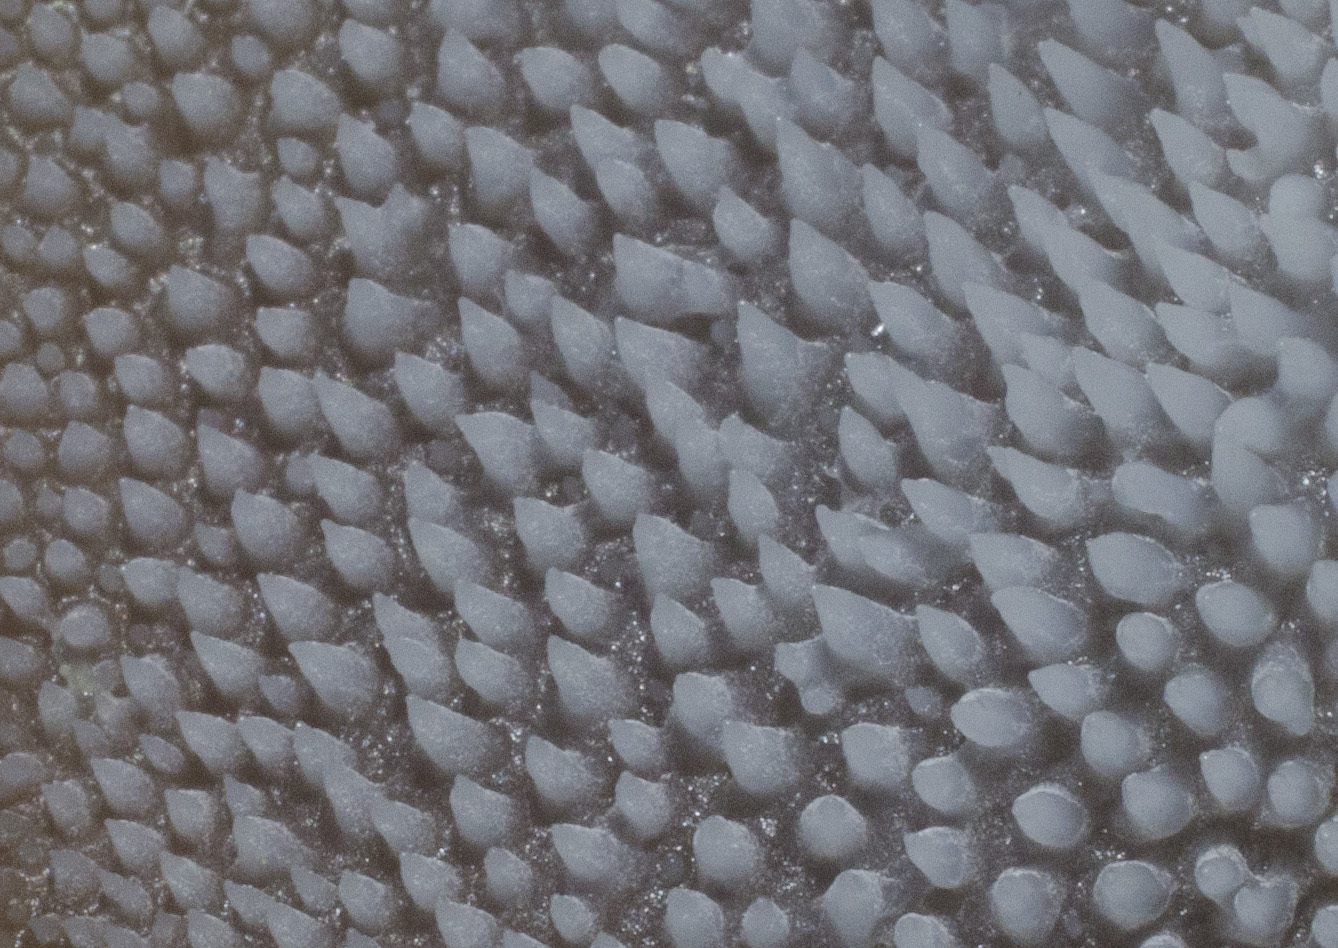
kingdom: Fungi
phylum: Basidiomycota
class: Agaricomycetes
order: Auriculariales
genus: Pseudohydnum
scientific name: Pseudohydnum gelatinosum
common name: Jelly tongue
